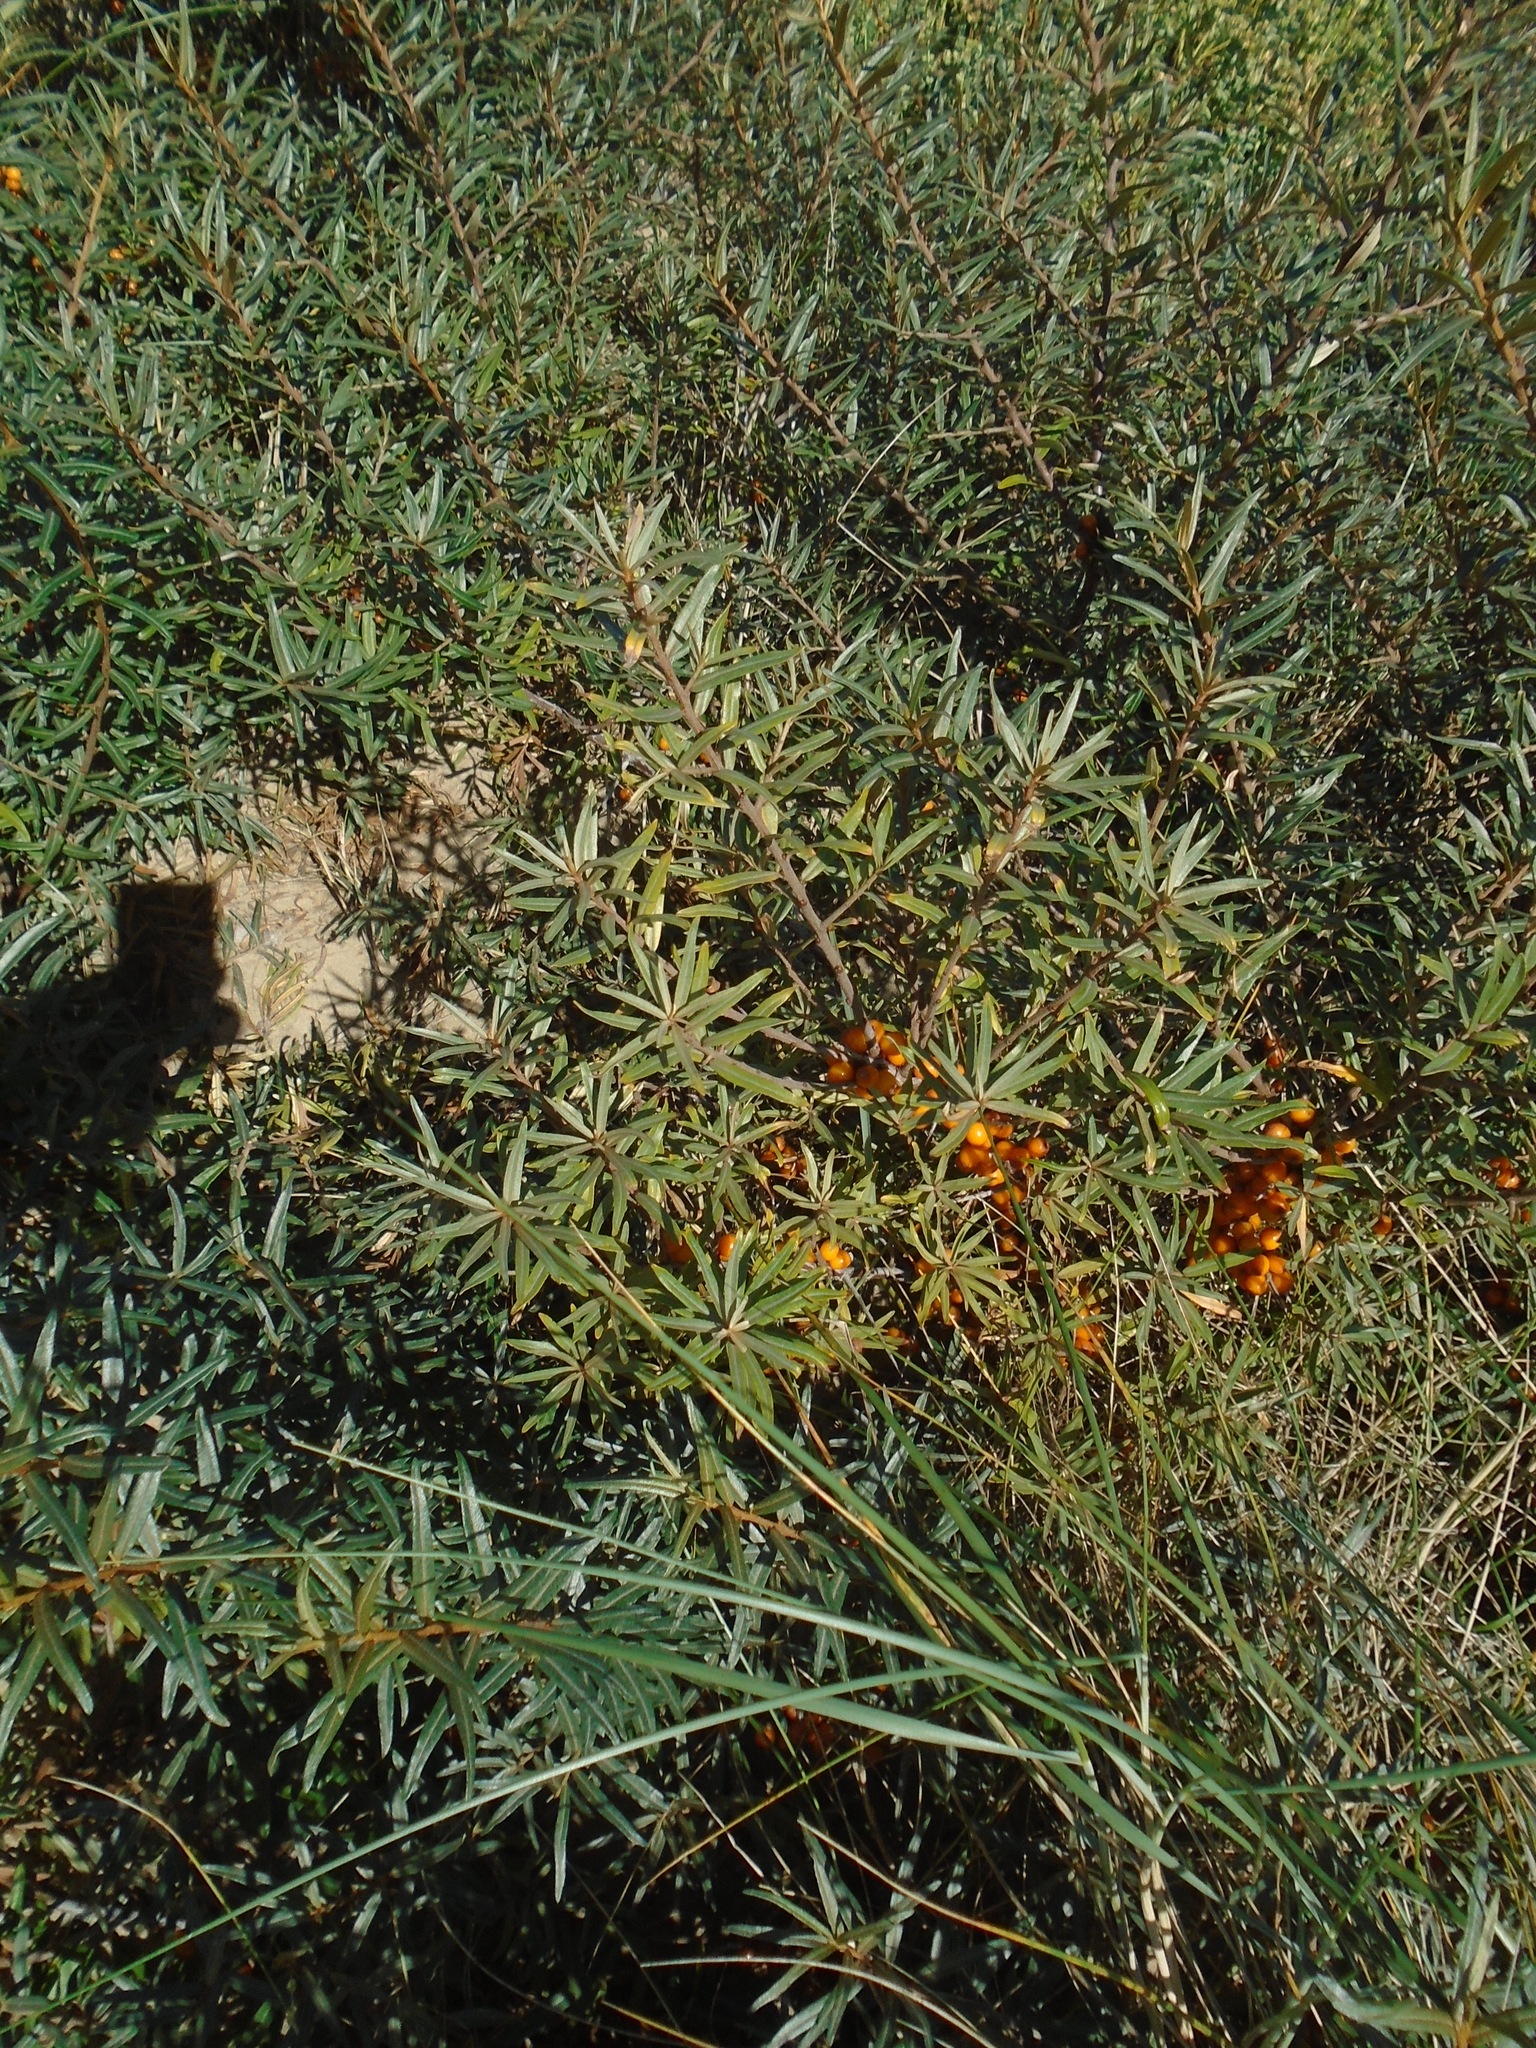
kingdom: Plantae
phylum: Tracheophyta
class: Magnoliopsida
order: Rosales
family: Elaeagnaceae
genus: Hippophae
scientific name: Hippophae rhamnoides
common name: Sea-buckthorn
